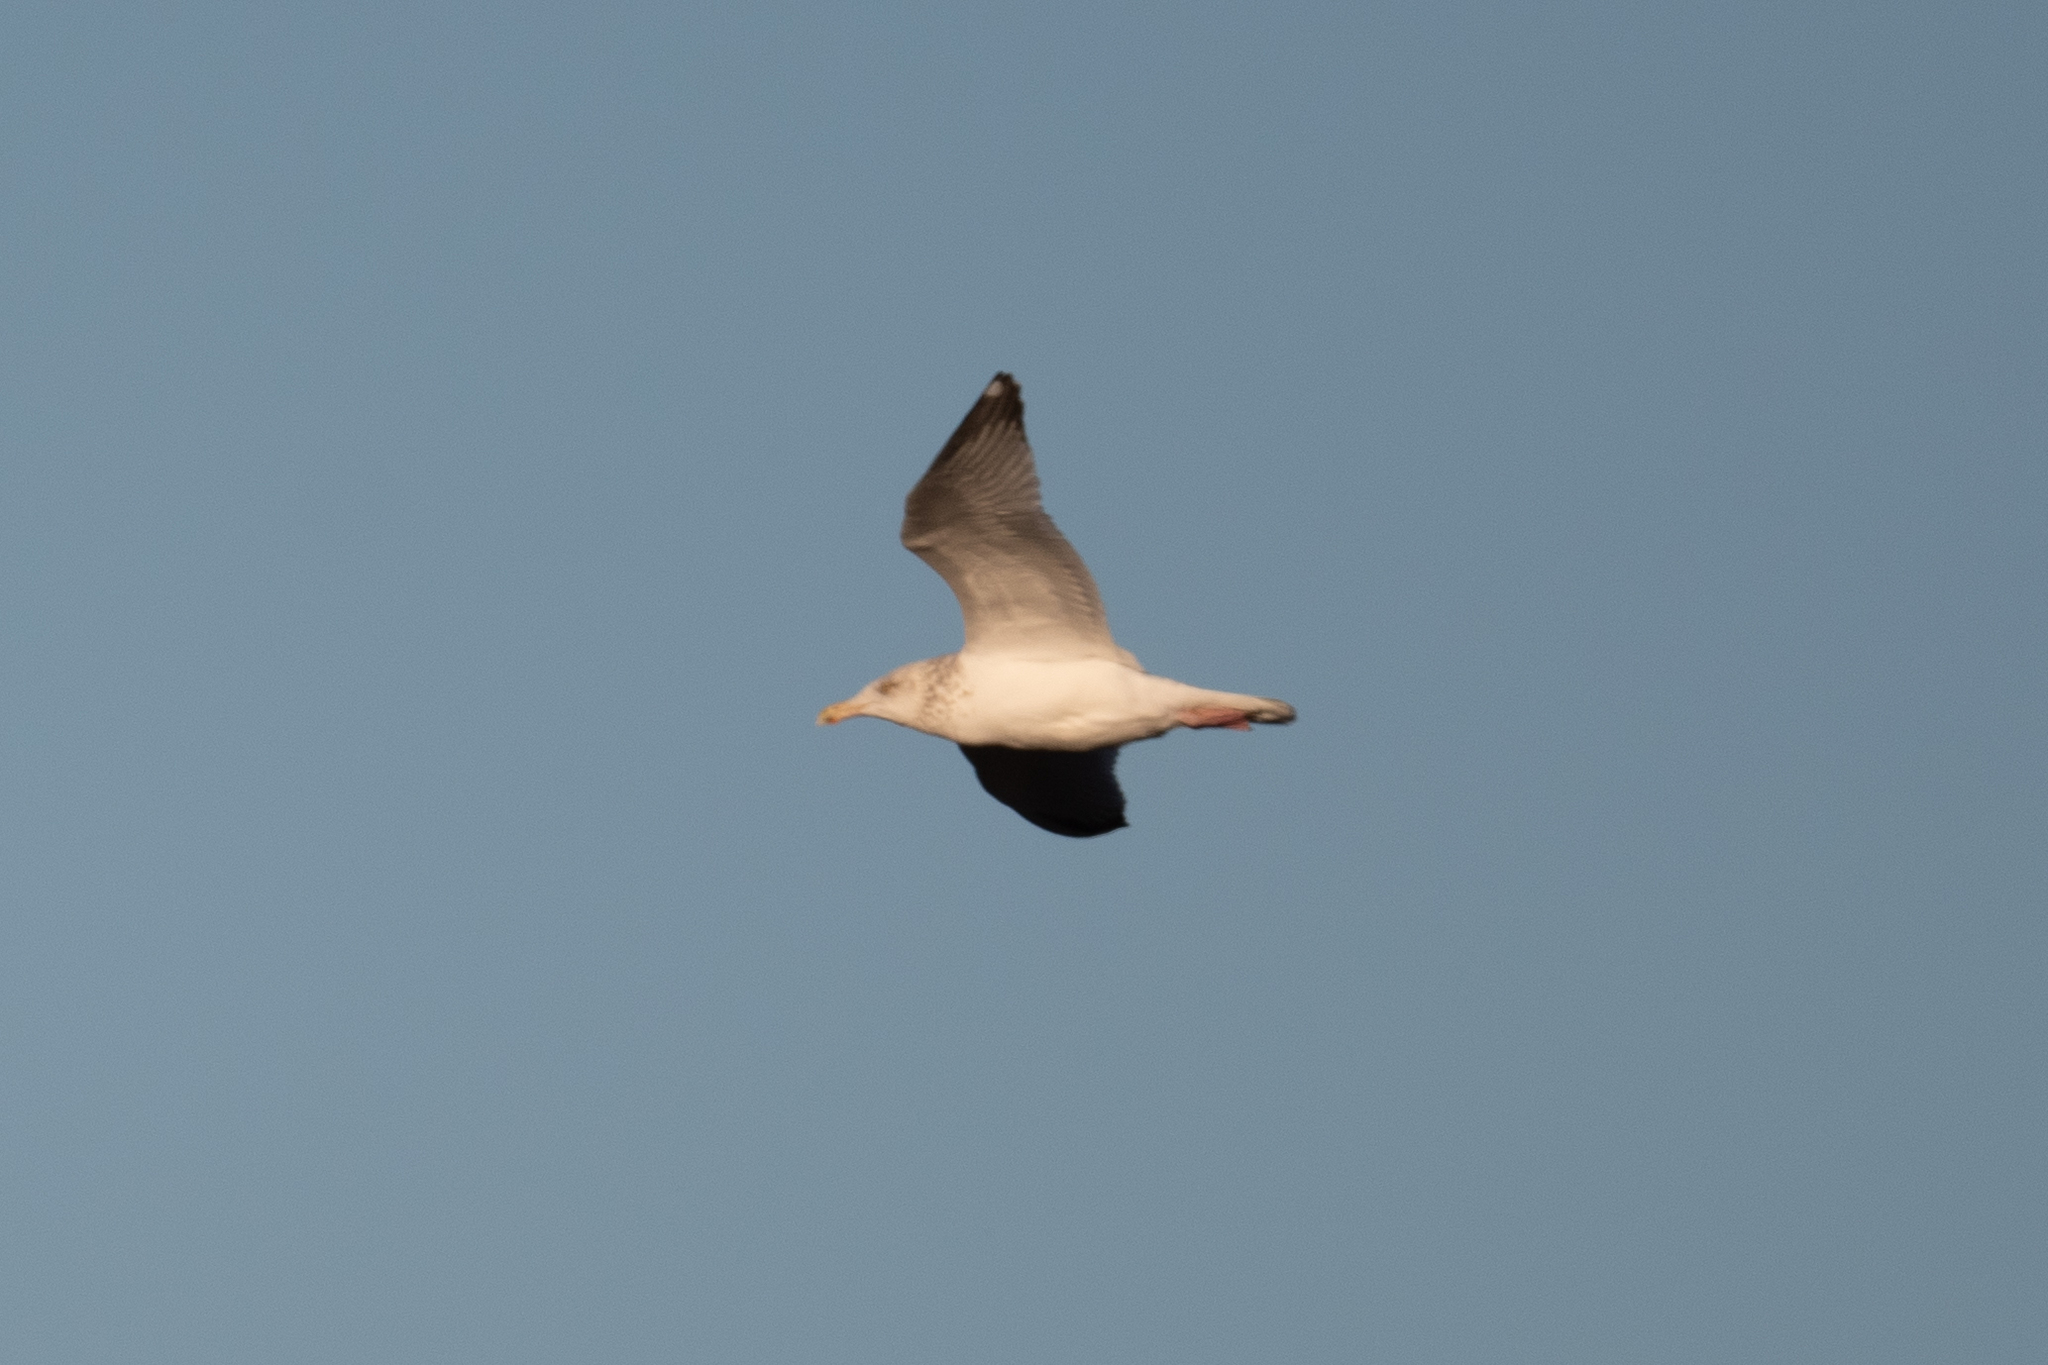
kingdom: Animalia
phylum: Chordata
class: Aves
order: Charadriiformes
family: Laridae
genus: Larus
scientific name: Larus argentatus
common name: Herring gull
